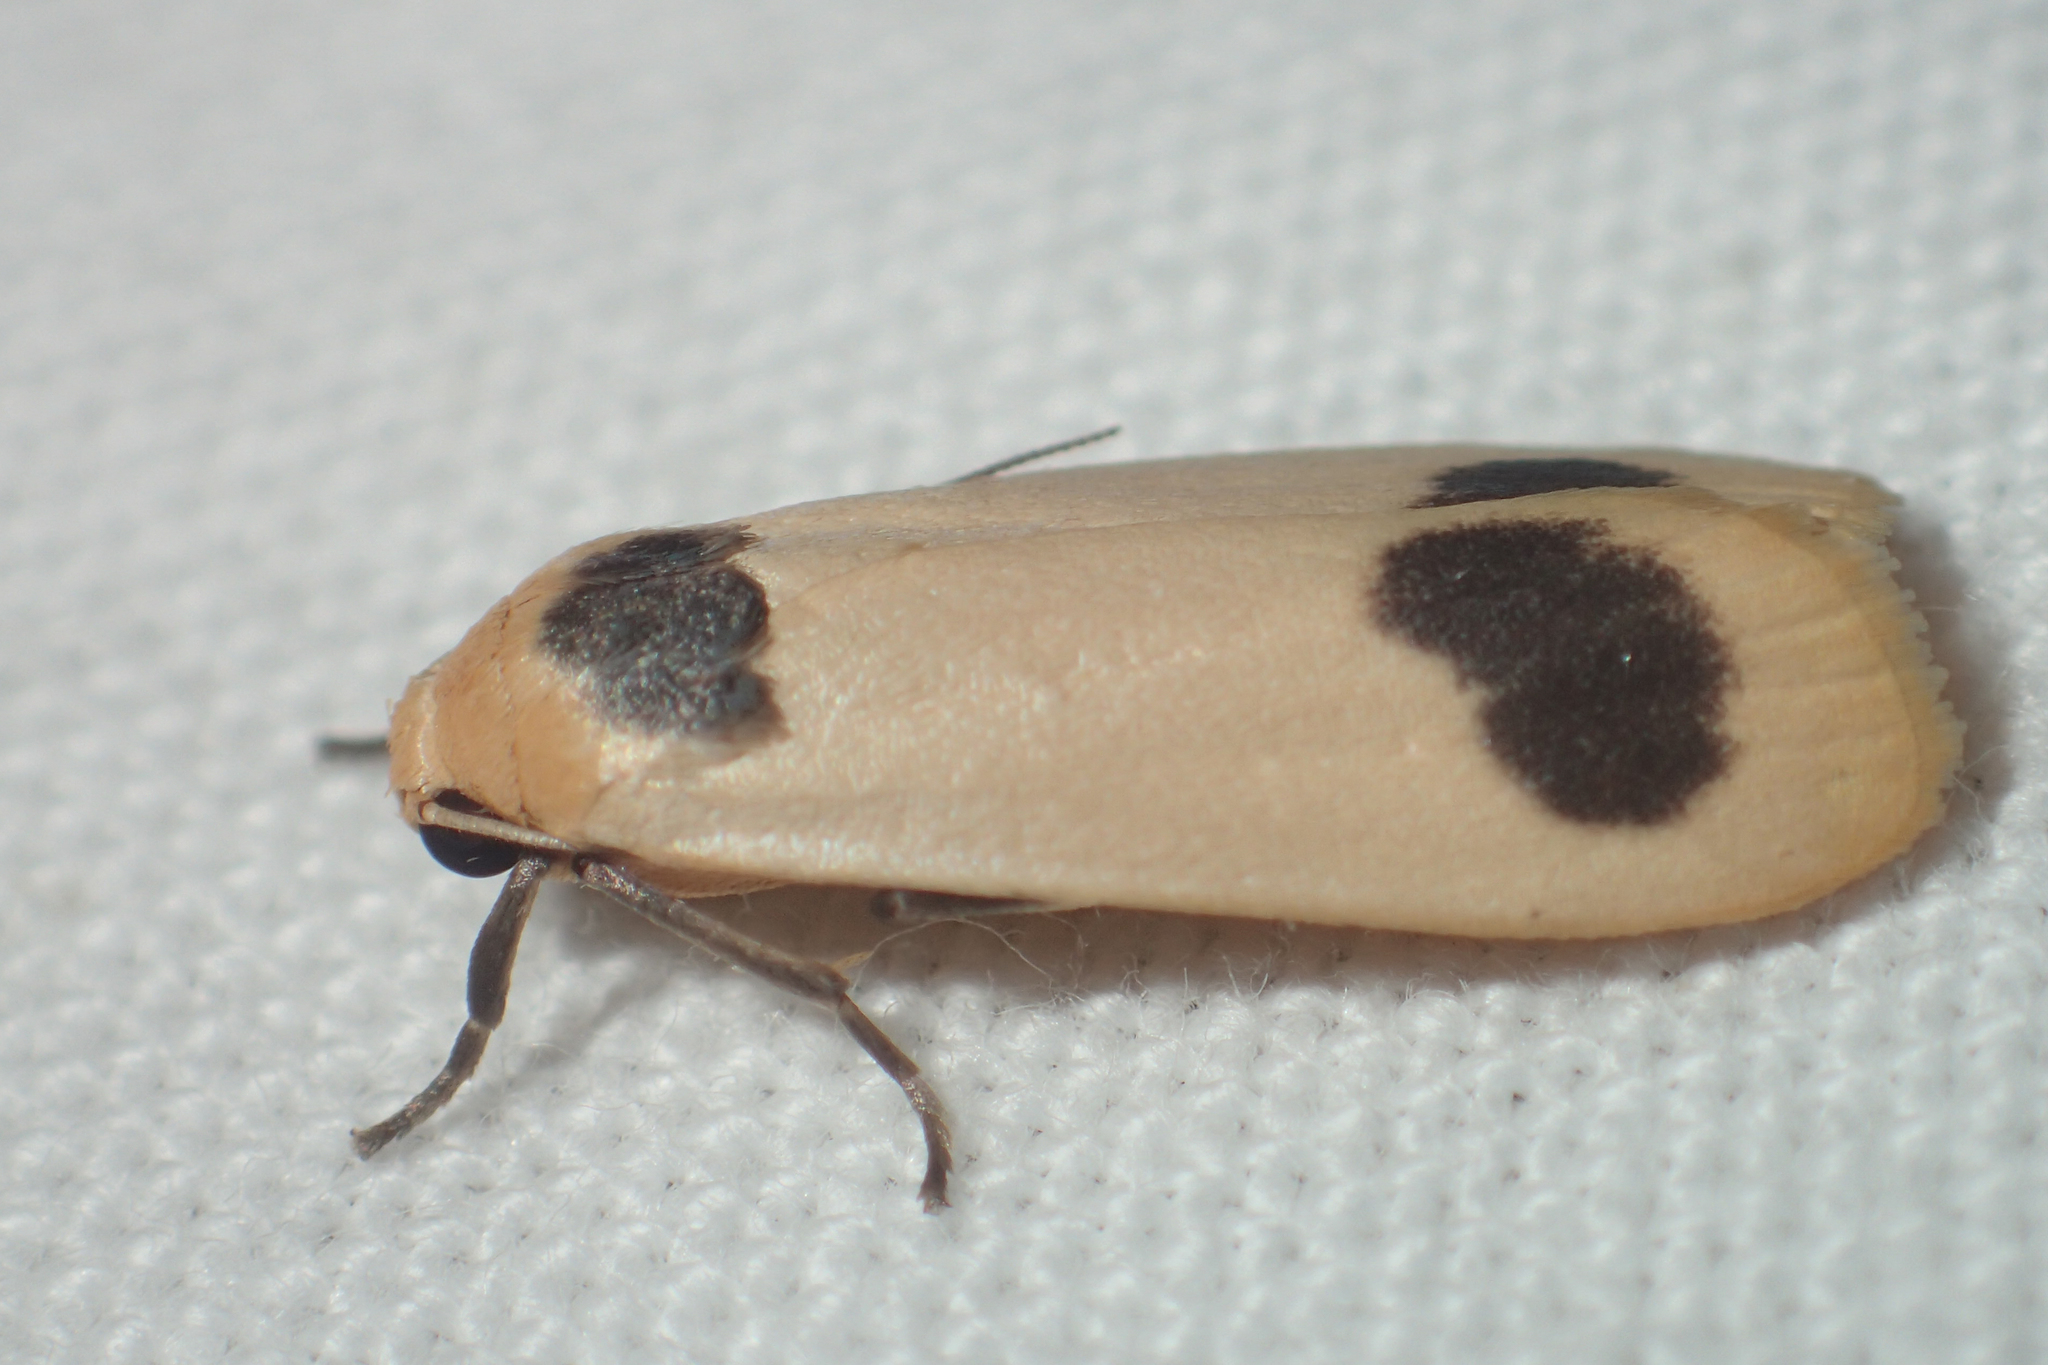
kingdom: Animalia
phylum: Arthropoda
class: Insecta
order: Lepidoptera
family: Erebidae
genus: Brunia
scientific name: Brunia gibonica
